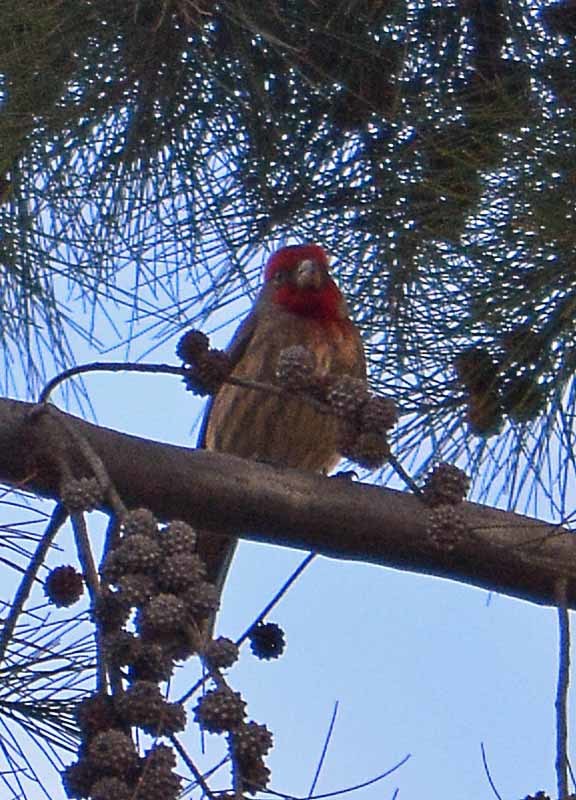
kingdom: Animalia
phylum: Chordata
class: Aves
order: Passeriformes
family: Fringillidae
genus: Haemorhous
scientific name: Haemorhous mexicanus
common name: House finch
